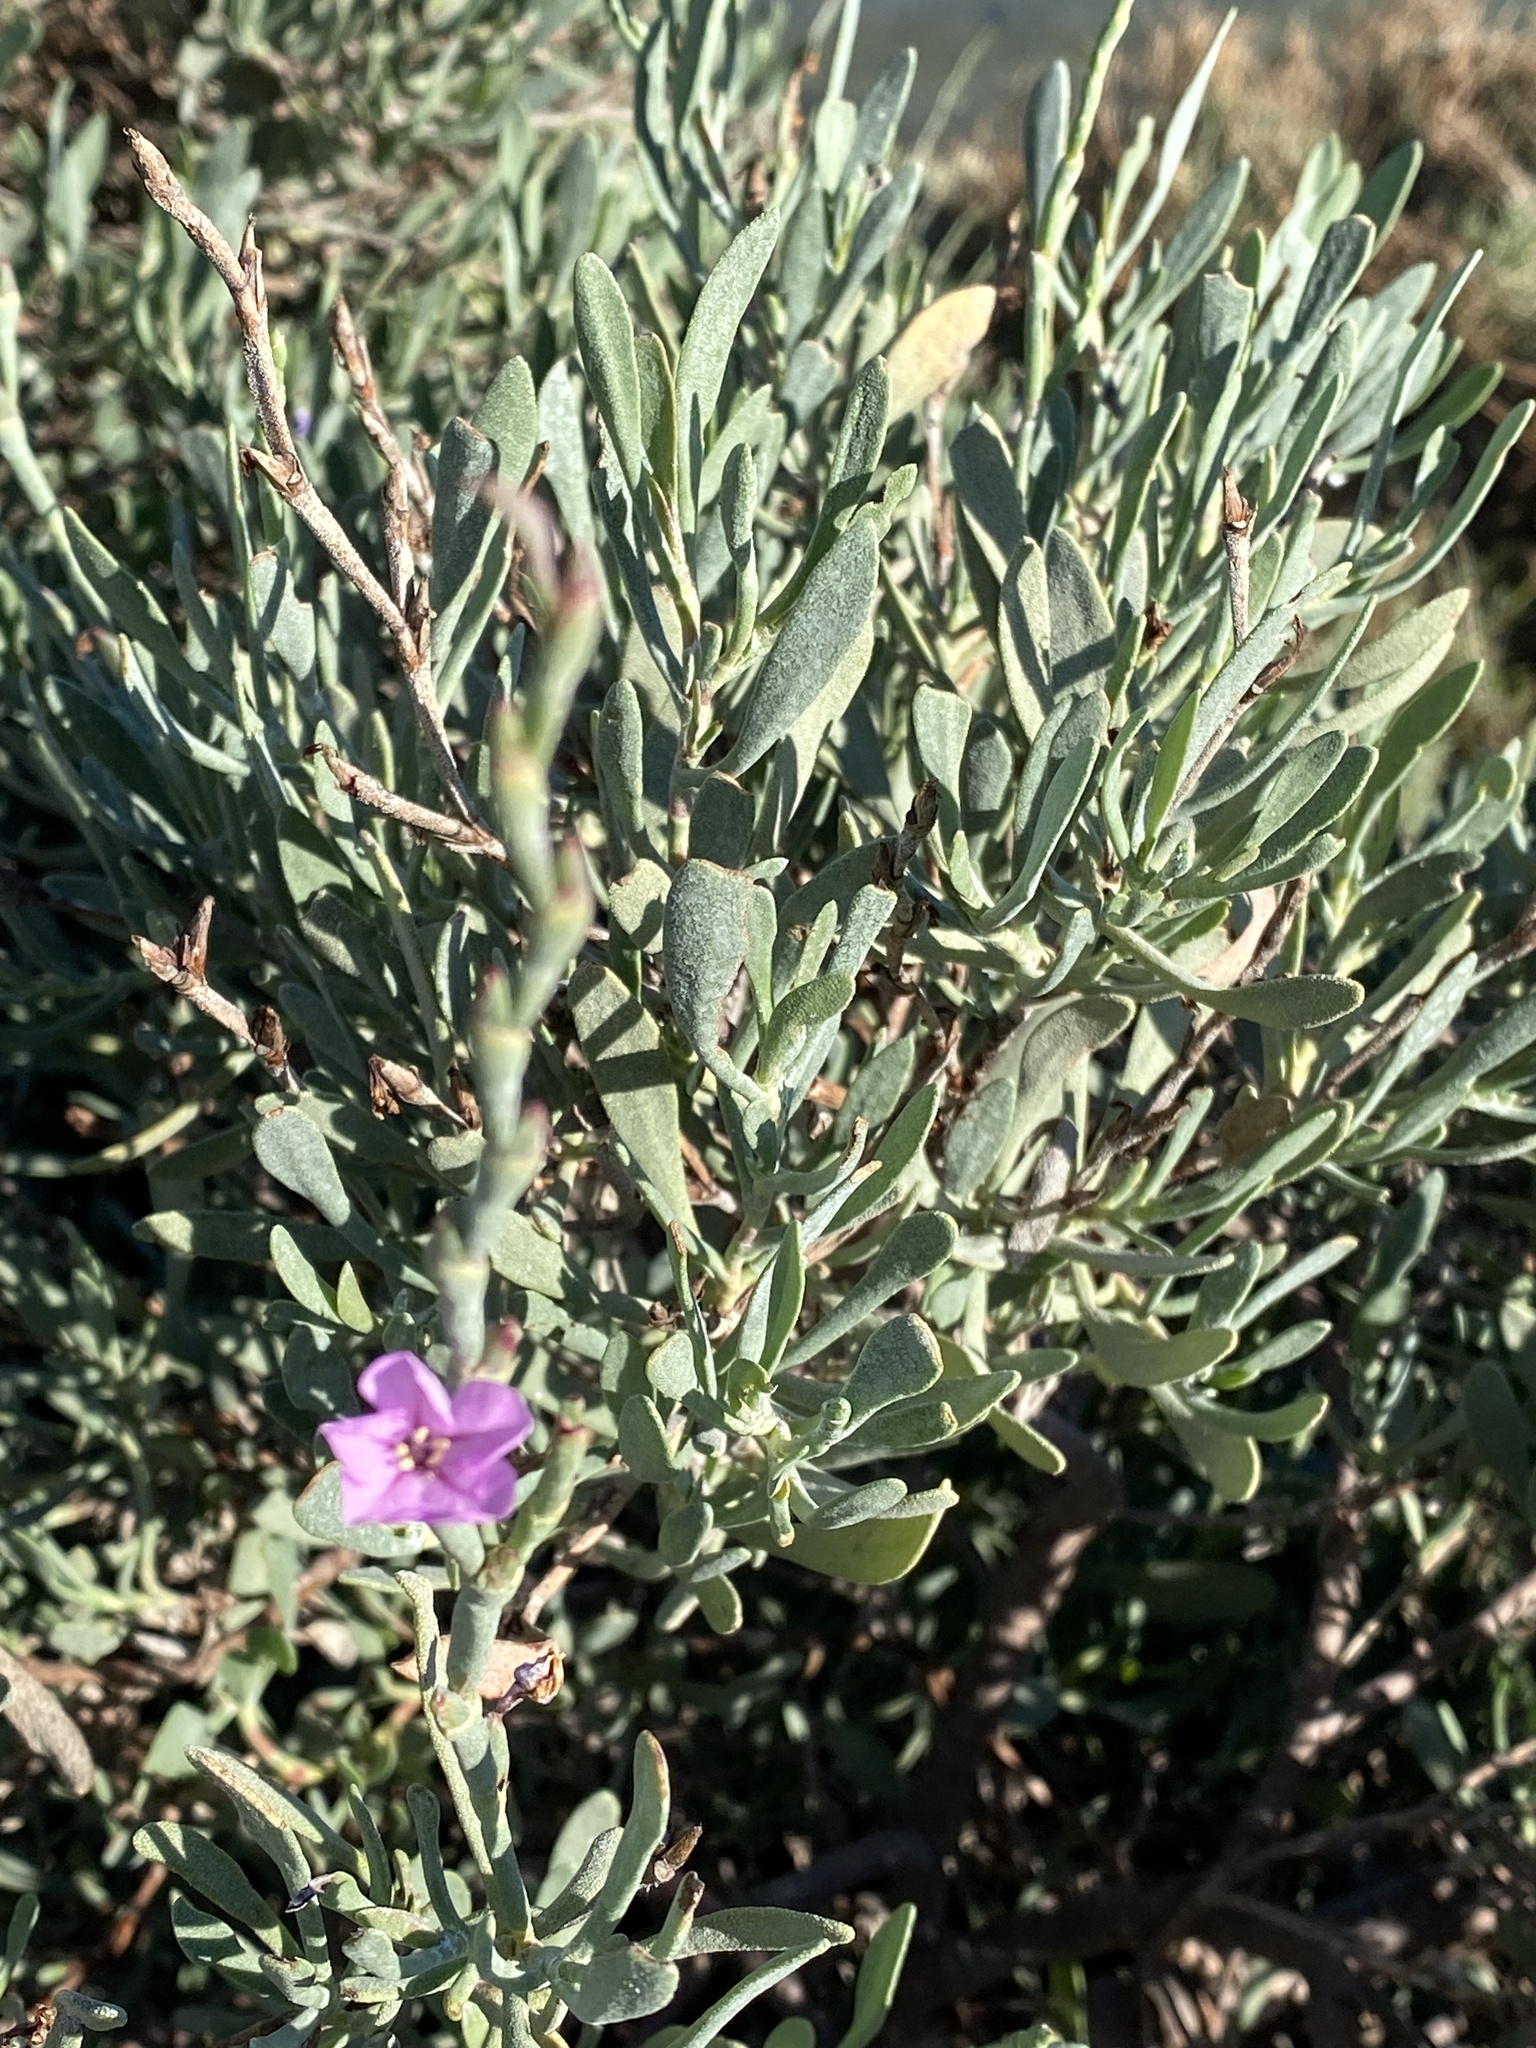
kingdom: Plantae
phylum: Tracheophyta
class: Magnoliopsida
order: Caryophyllales
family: Plumbaginaceae
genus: Limoniastrum
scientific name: Limoniastrum monopetalum
